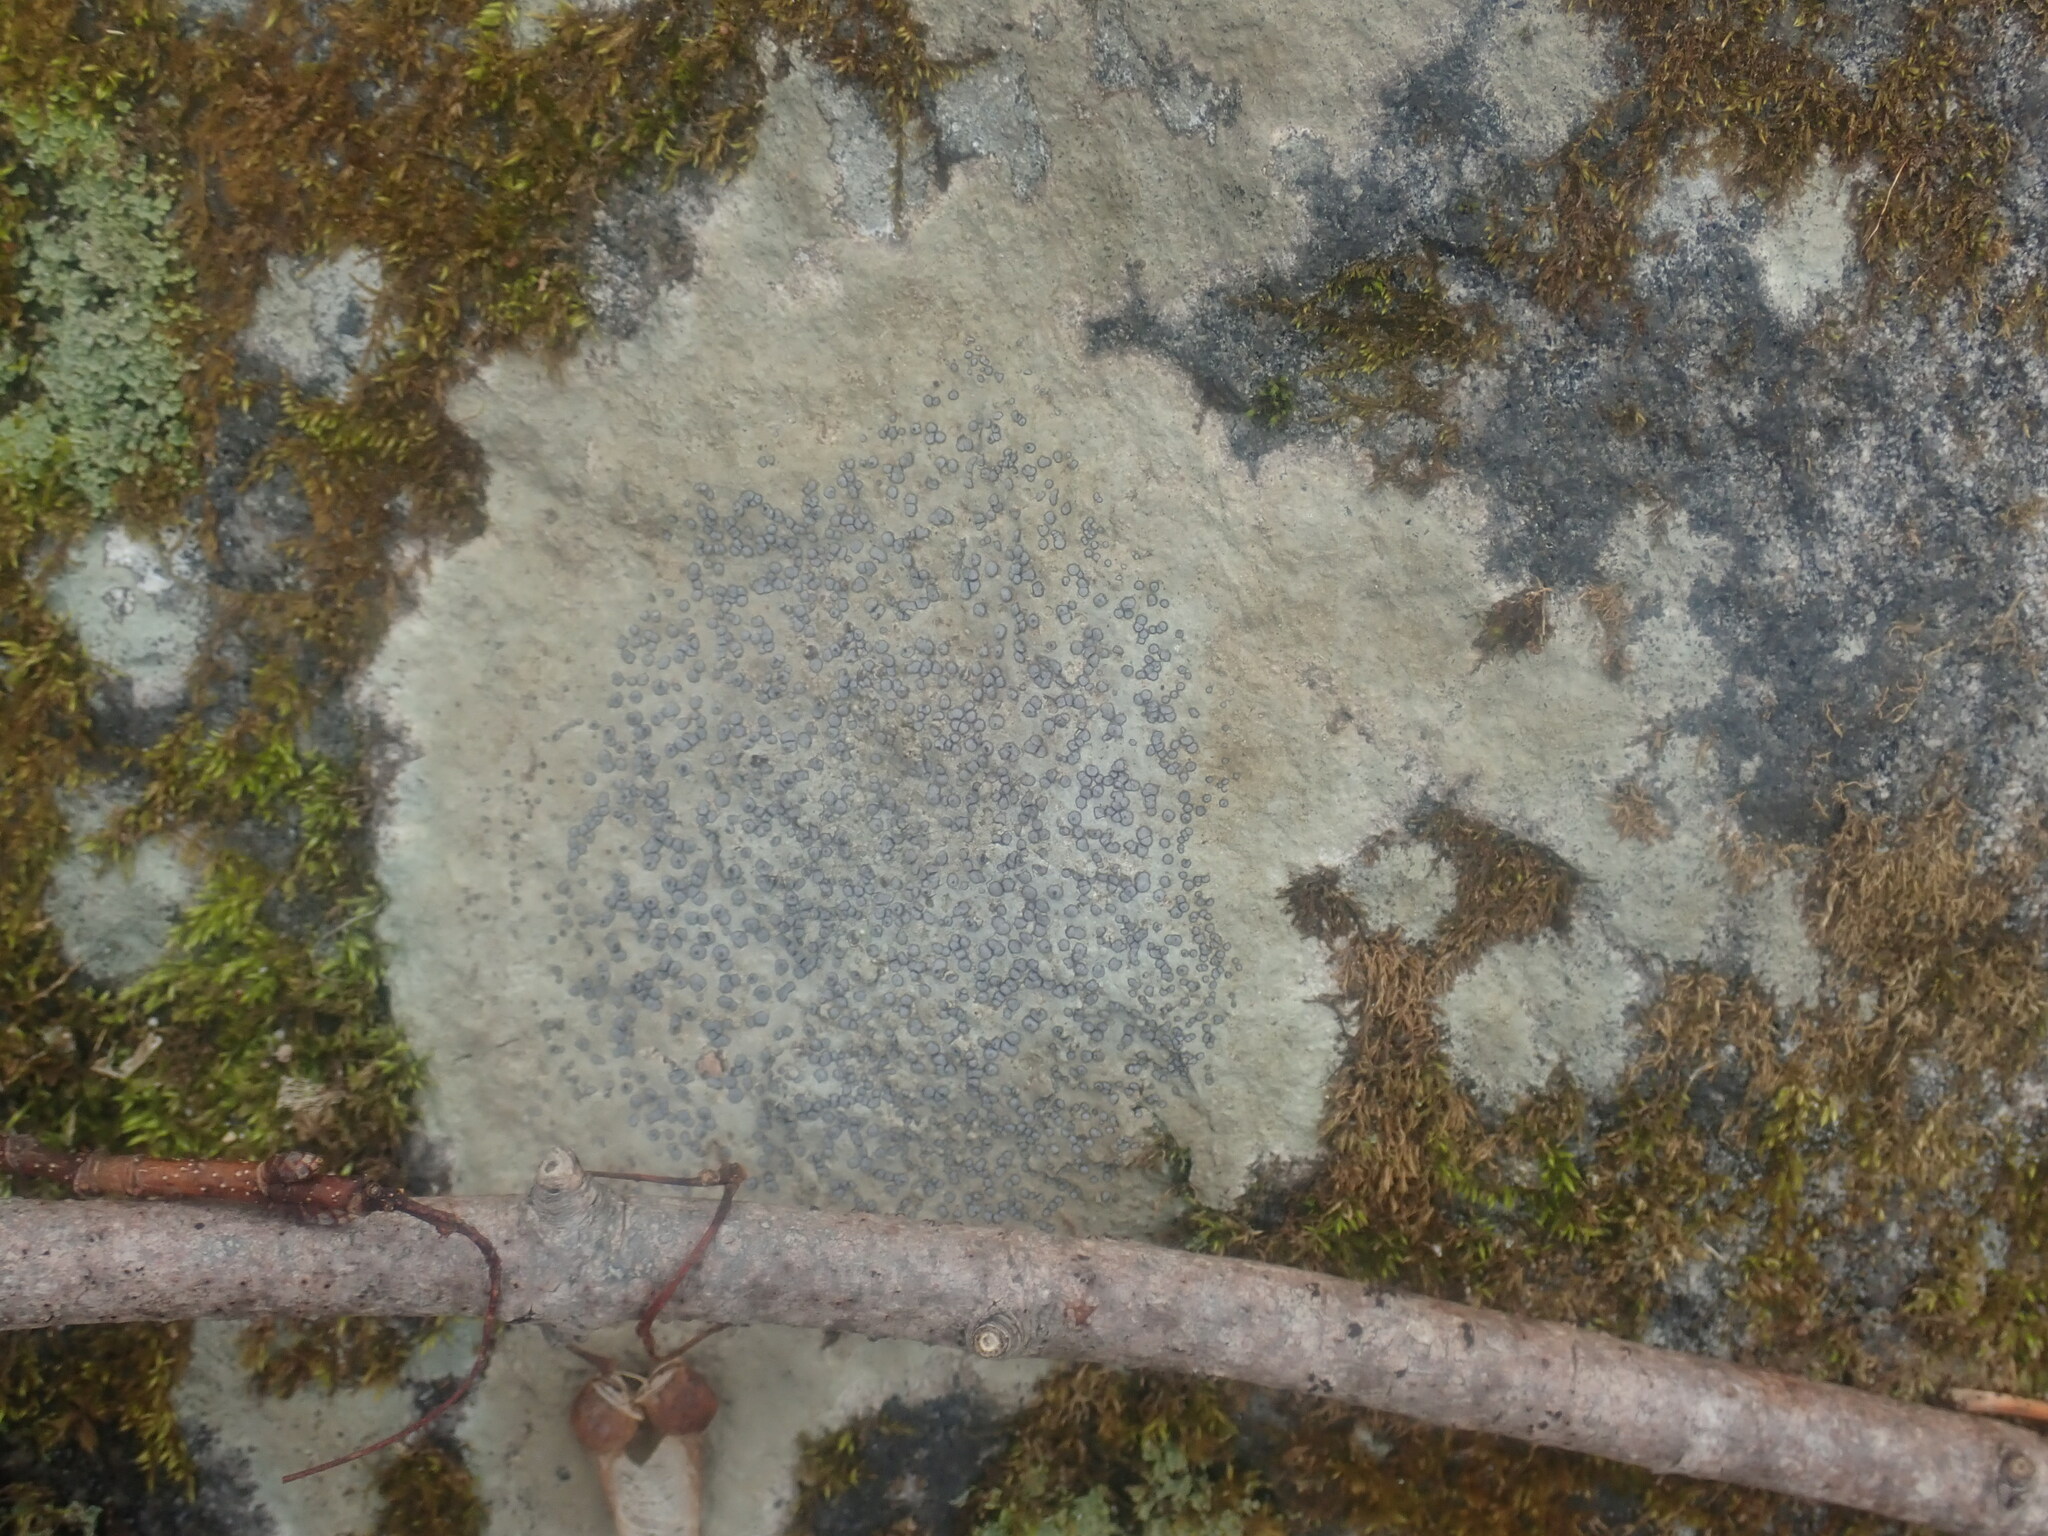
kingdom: Fungi
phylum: Ascomycota
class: Lecanoromycetes
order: Lecideales
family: Lecideaceae
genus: Porpidia
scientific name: Porpidia albocaerulescens
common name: Smokey-eyed boulder lichen
